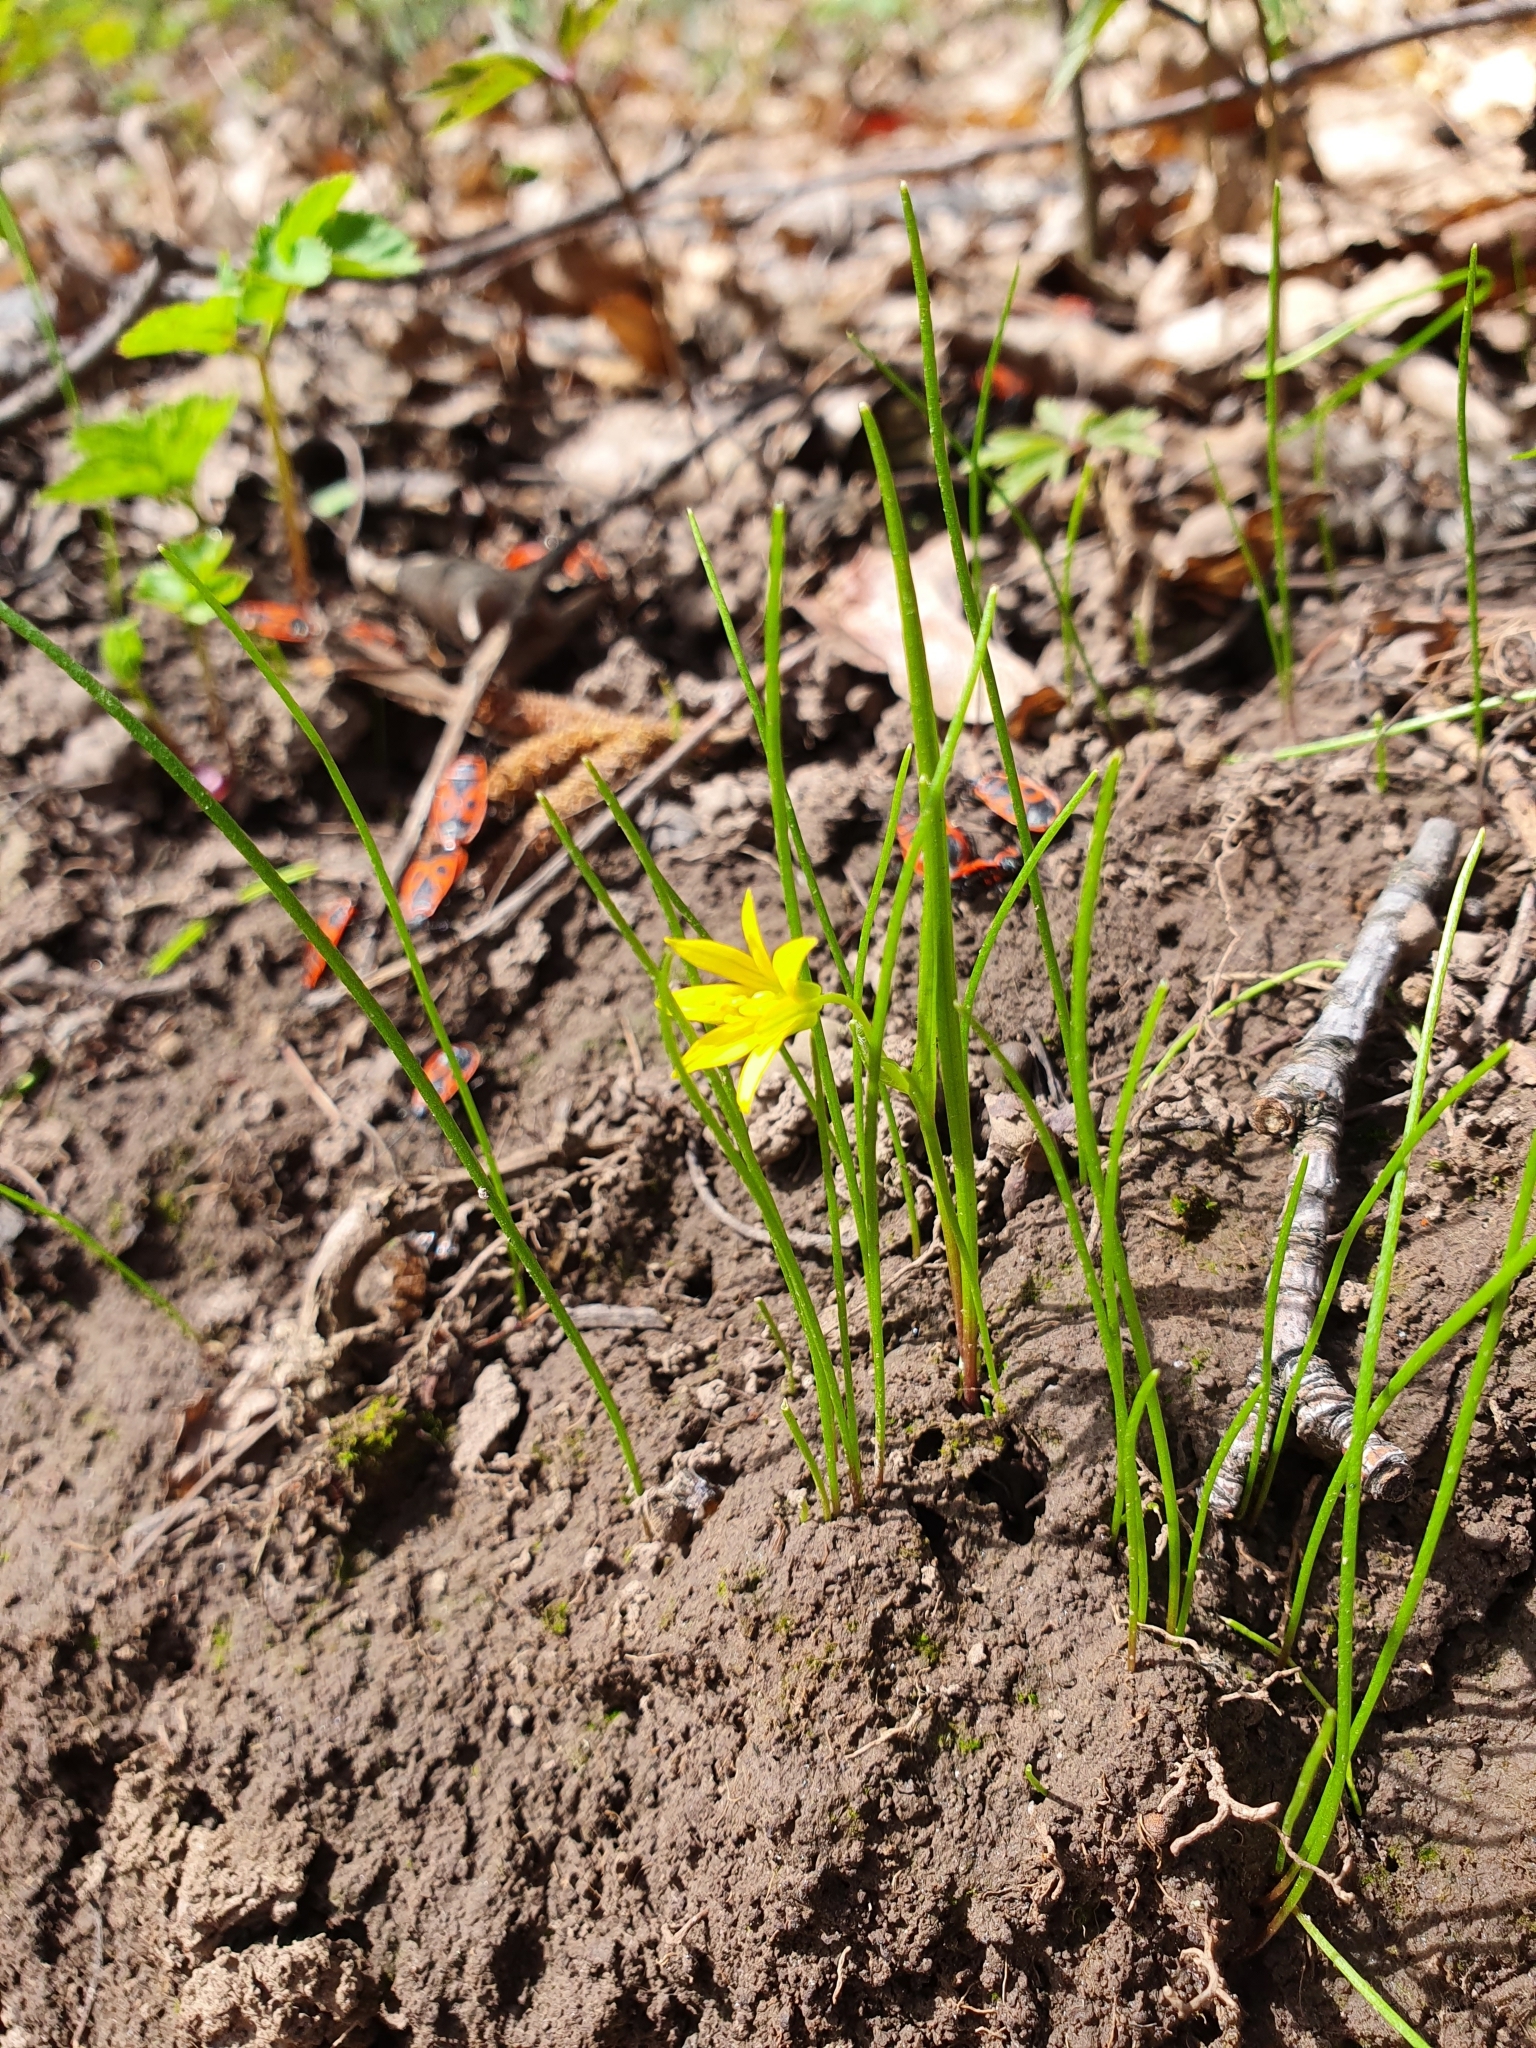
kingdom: Plantae
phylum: Tracheophyta
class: Liliopsida
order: Liliales
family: Liliaceae
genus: Gagea
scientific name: Gagea minima
